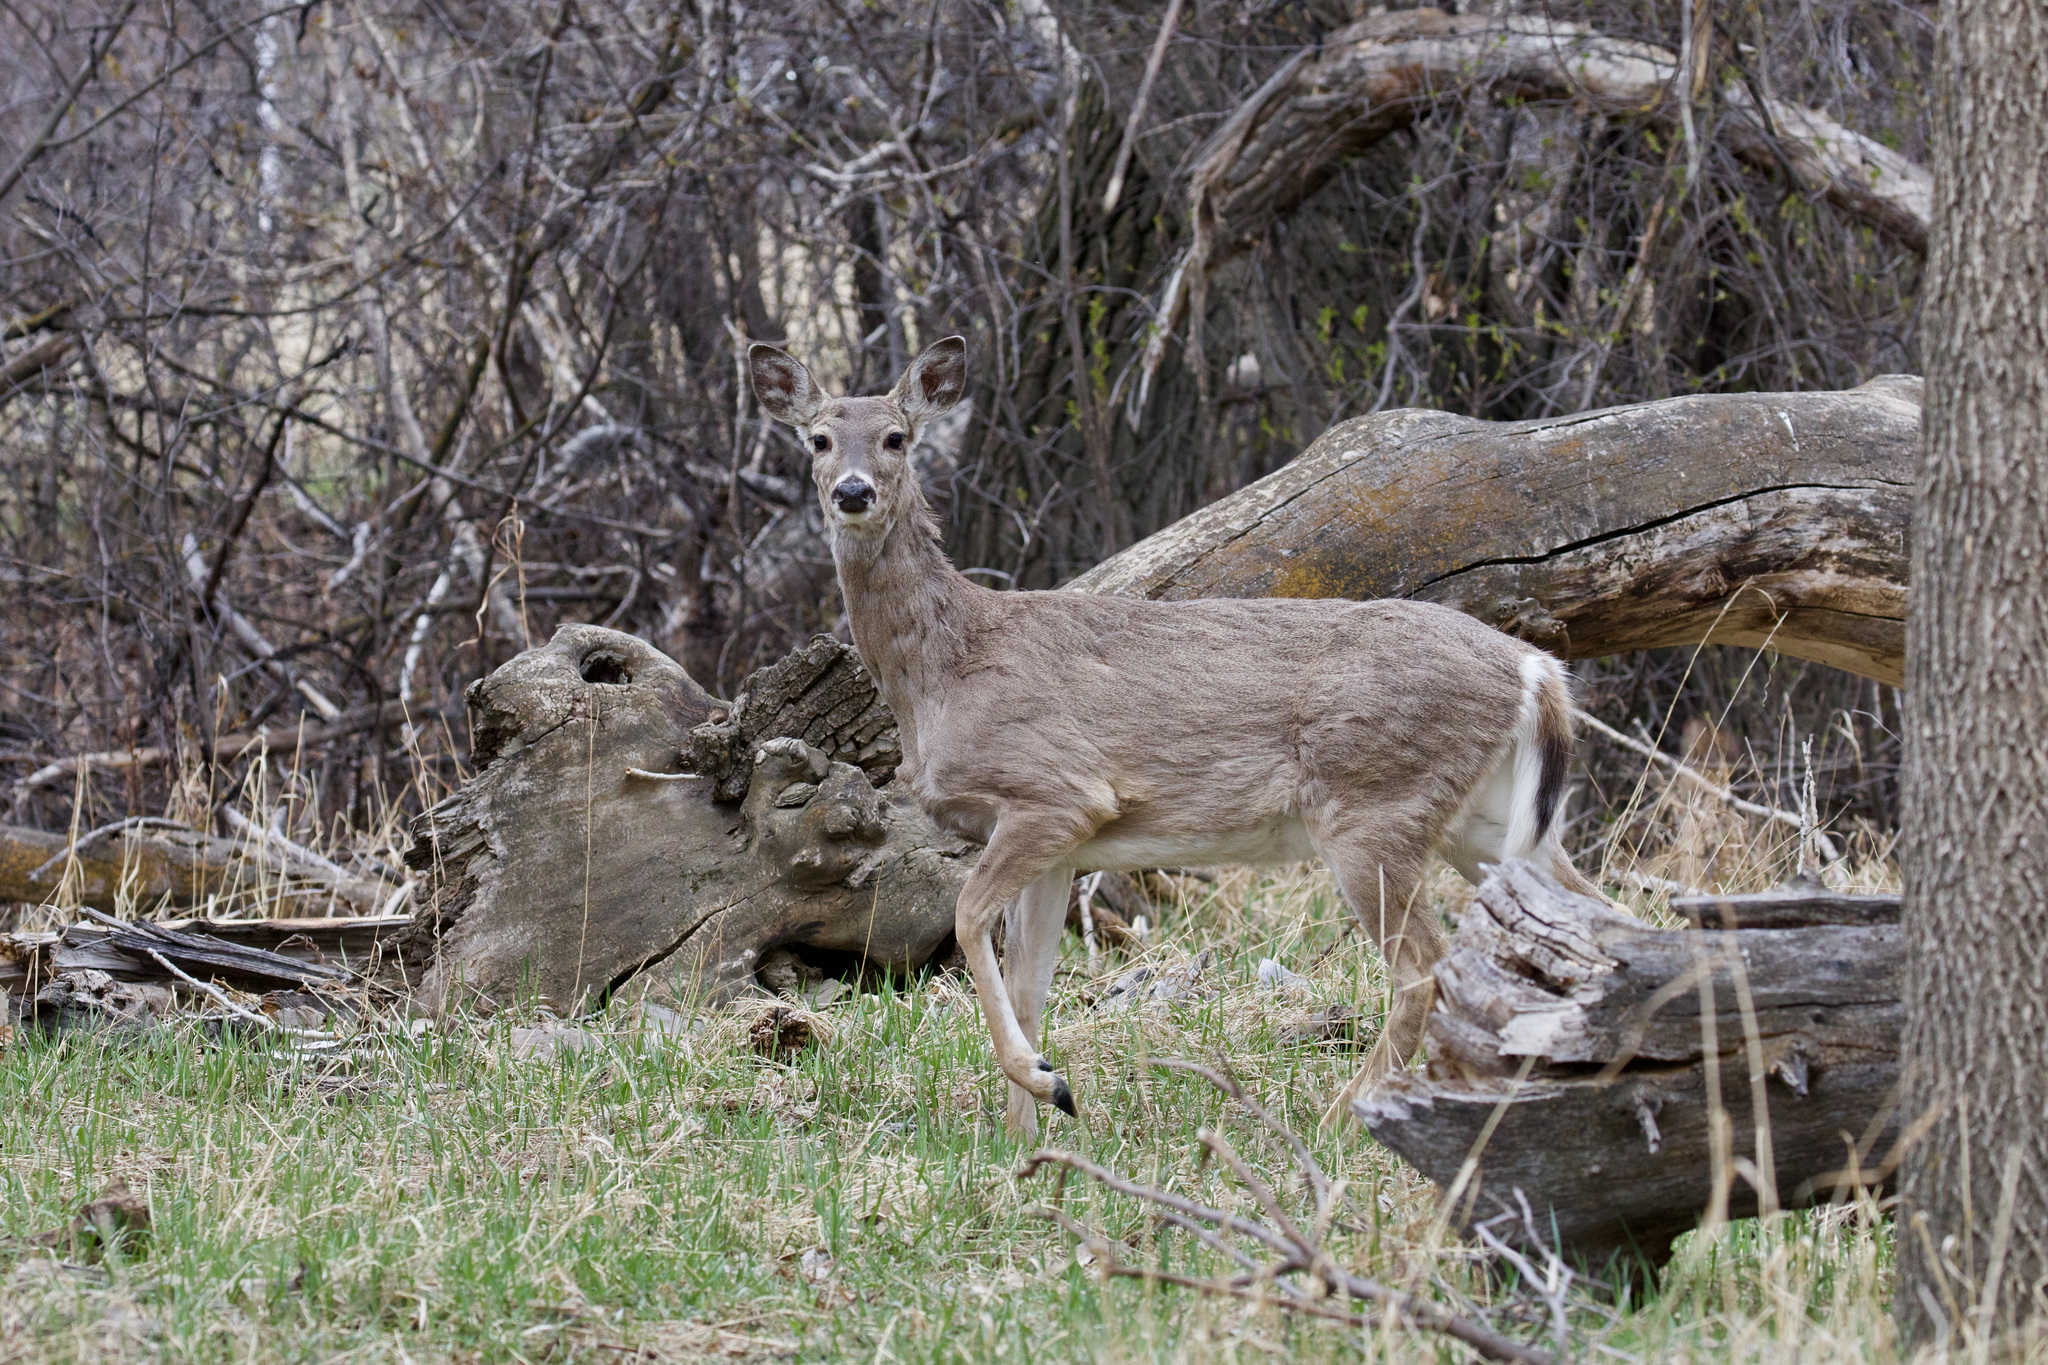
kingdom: Animalia
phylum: Chordata
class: Mammalia
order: Artiodactyla
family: Cervidae
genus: Odocoileus
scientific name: Odocoileus virginianus
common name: White-tailed deer
